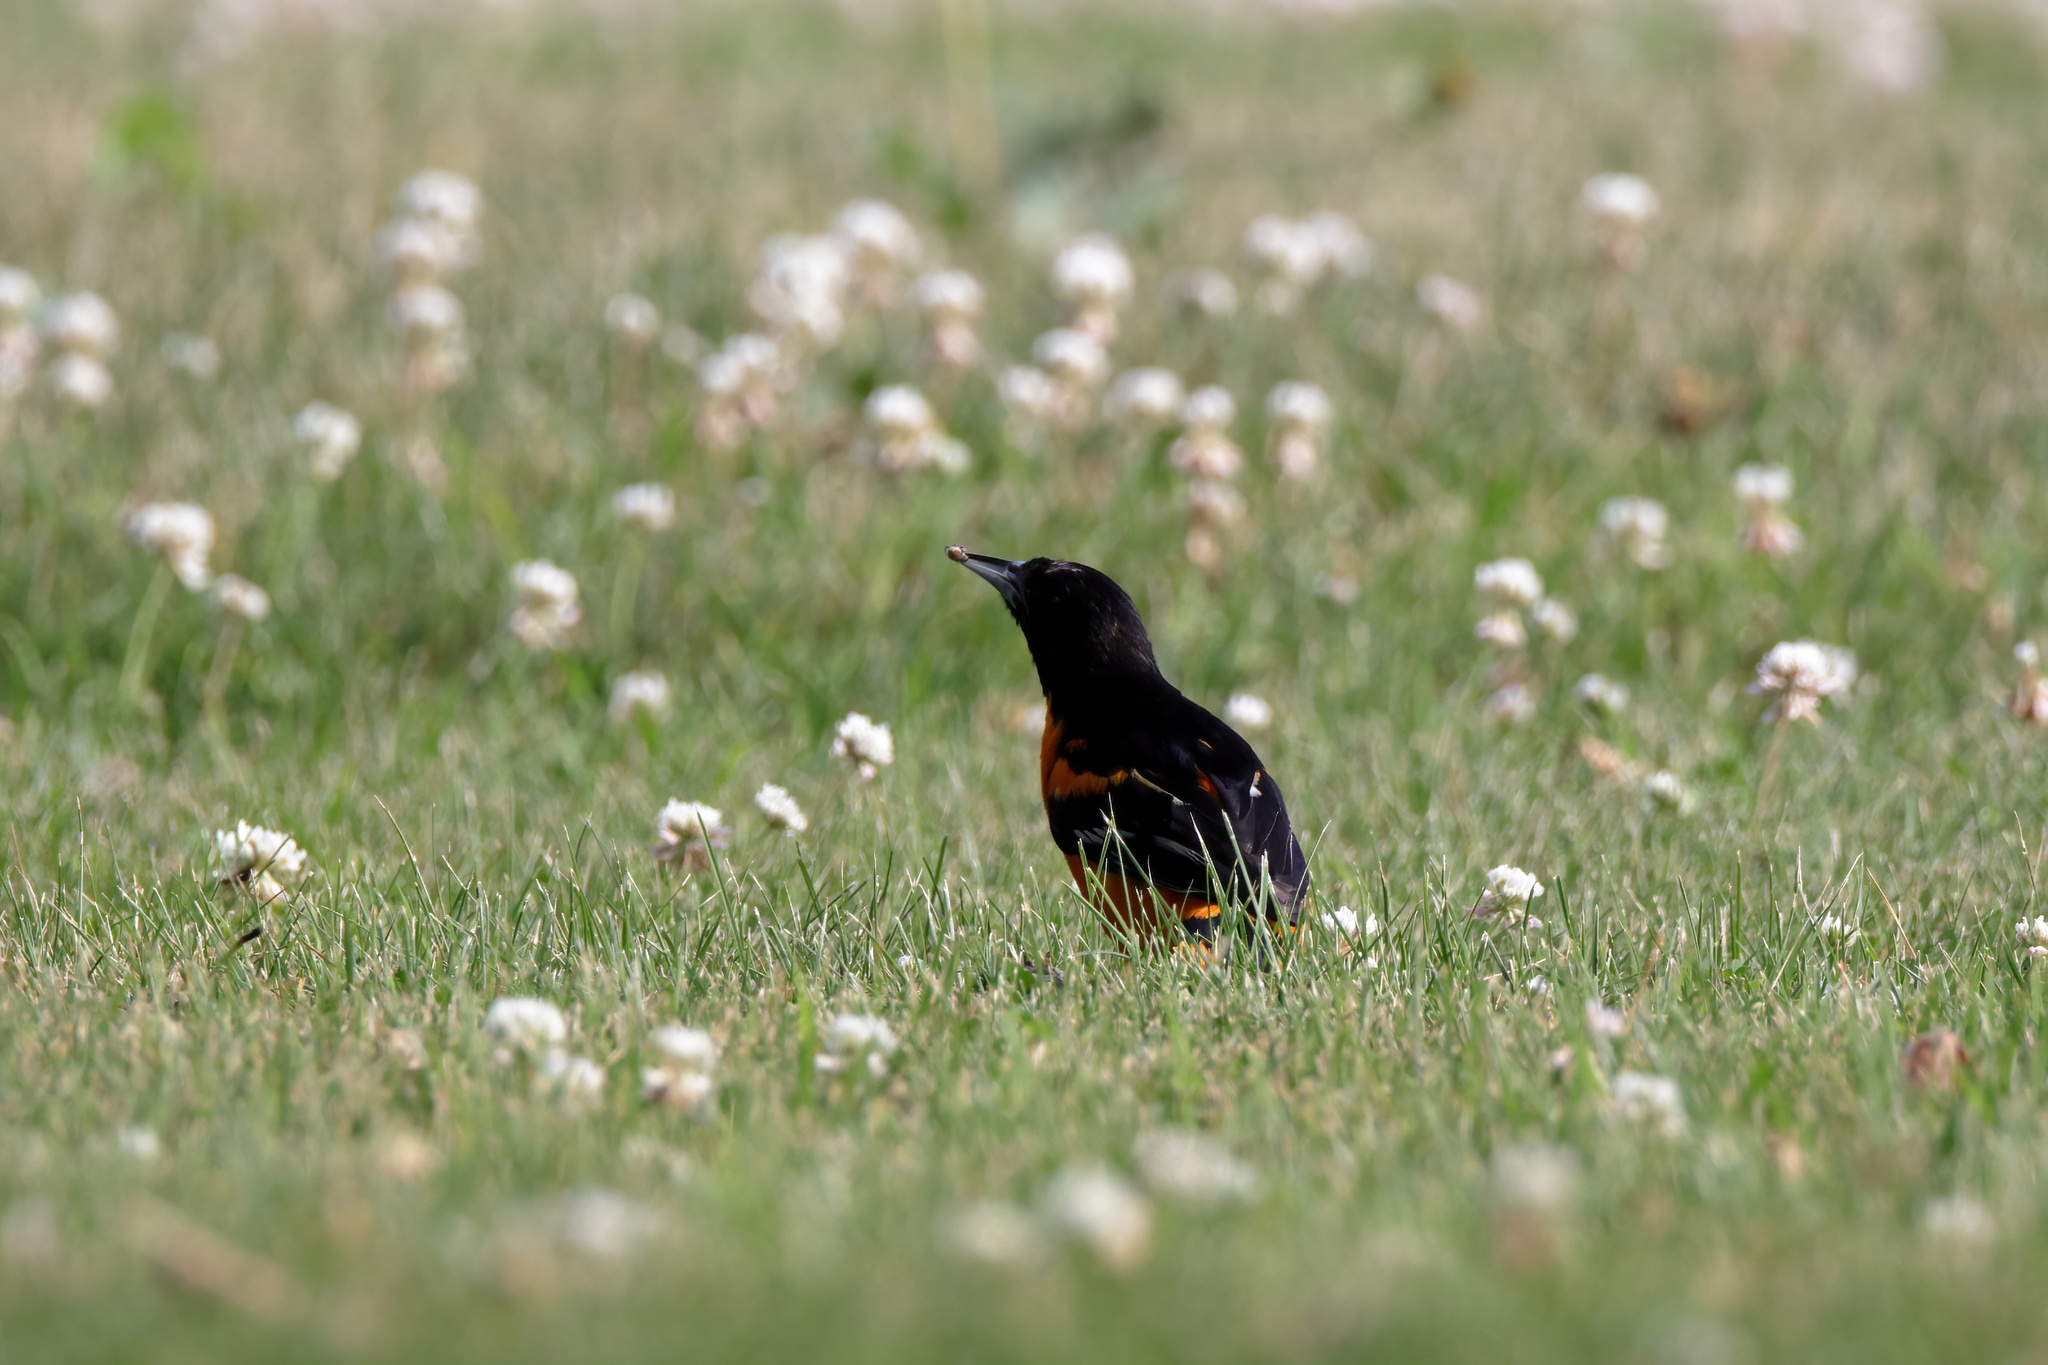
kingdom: Animalia
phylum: Chordata
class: Aves
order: Passeriformes
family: Icteridae
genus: Icterus
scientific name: Icterus galbula
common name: Baltimore oriole
